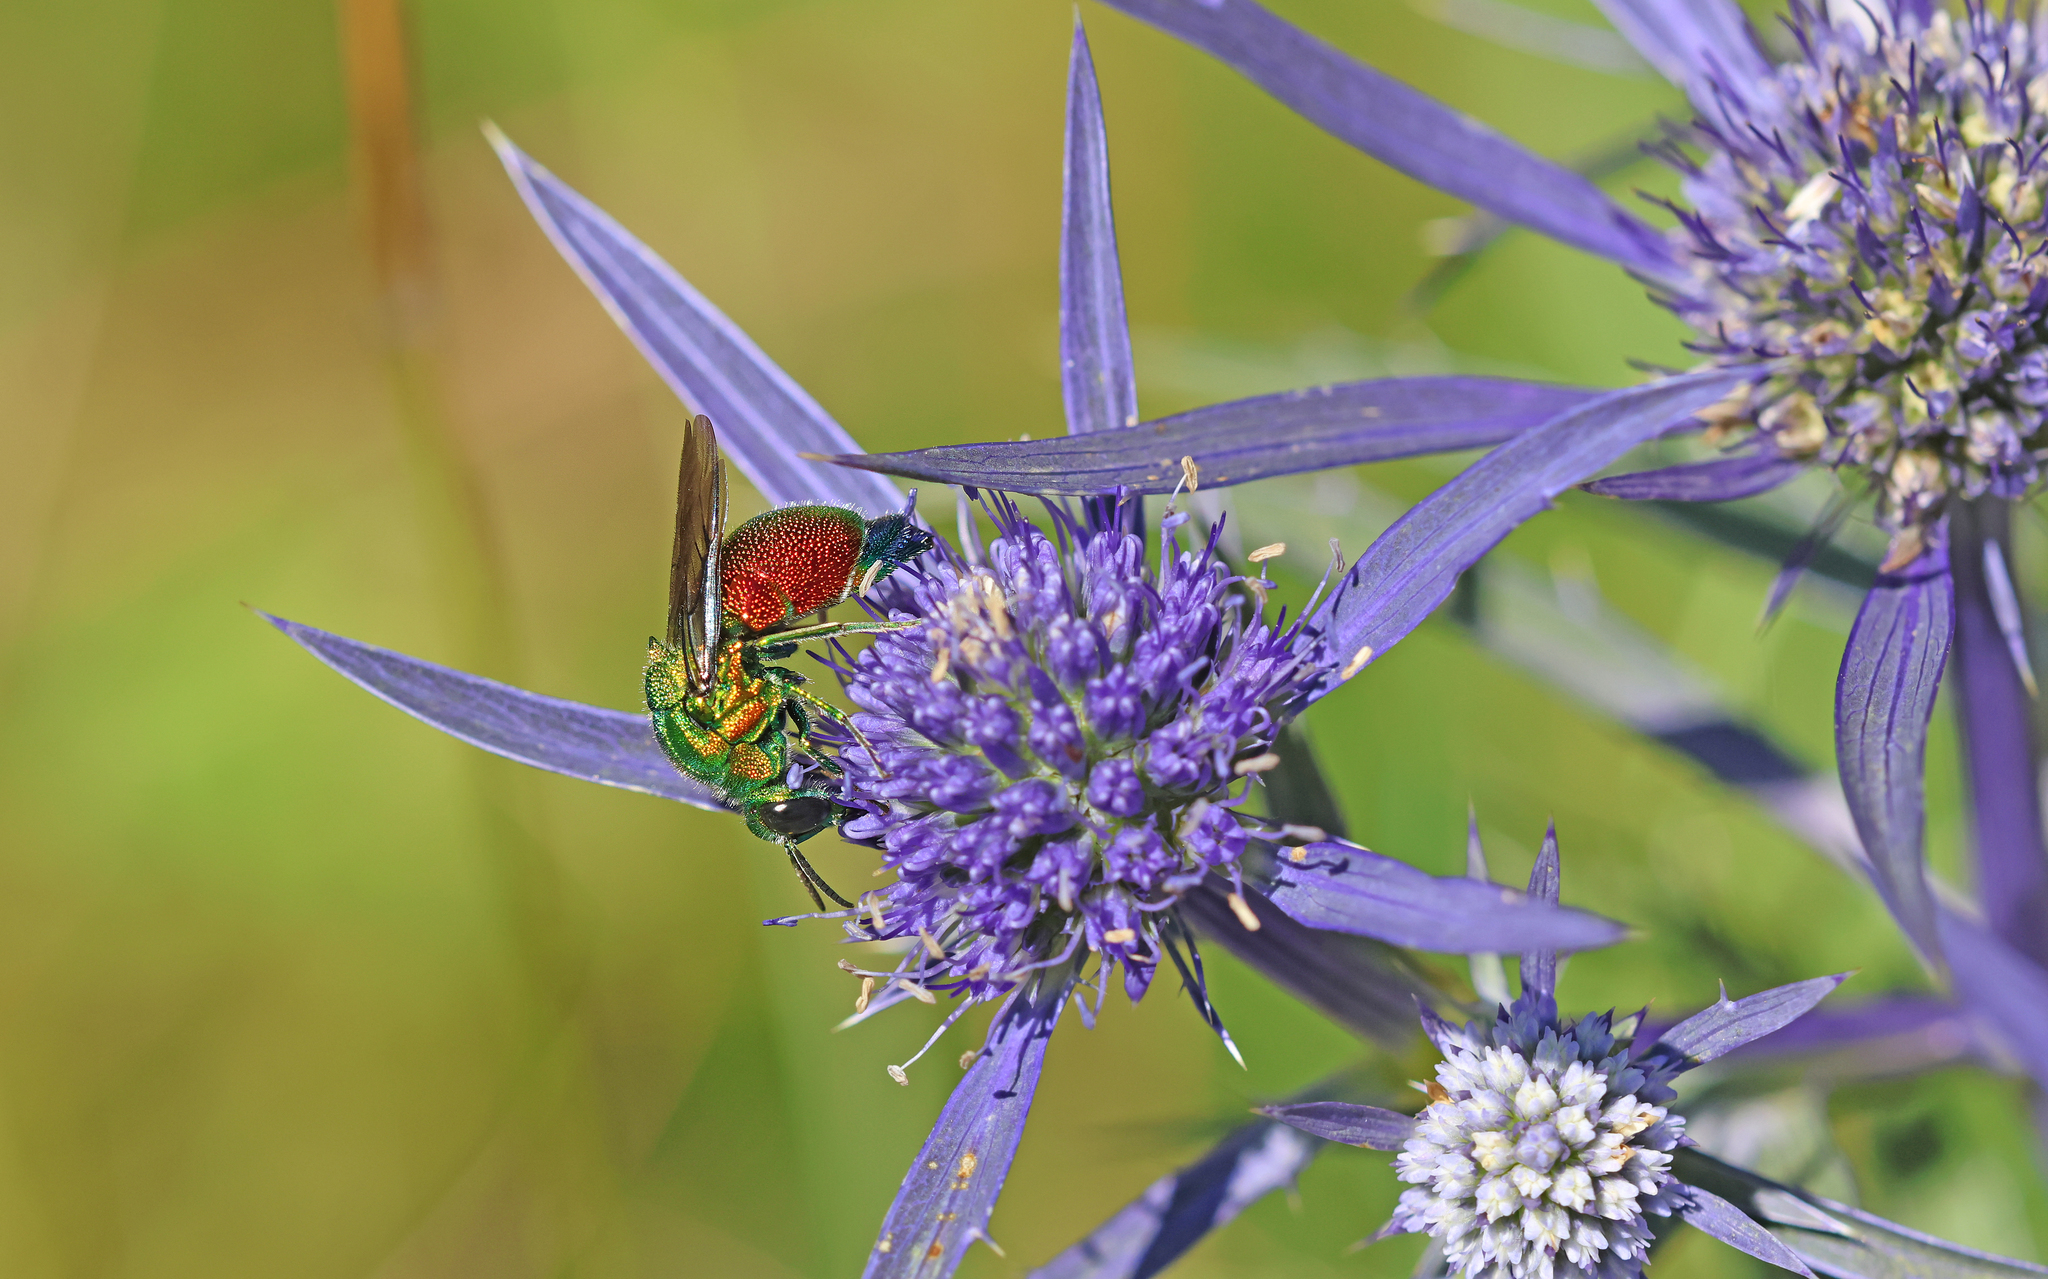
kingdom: Animalia
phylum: Arthropoda
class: Insecta
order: Hymenoptera
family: Chrysididae
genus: Stilbum
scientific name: Stilbum cyanurum
